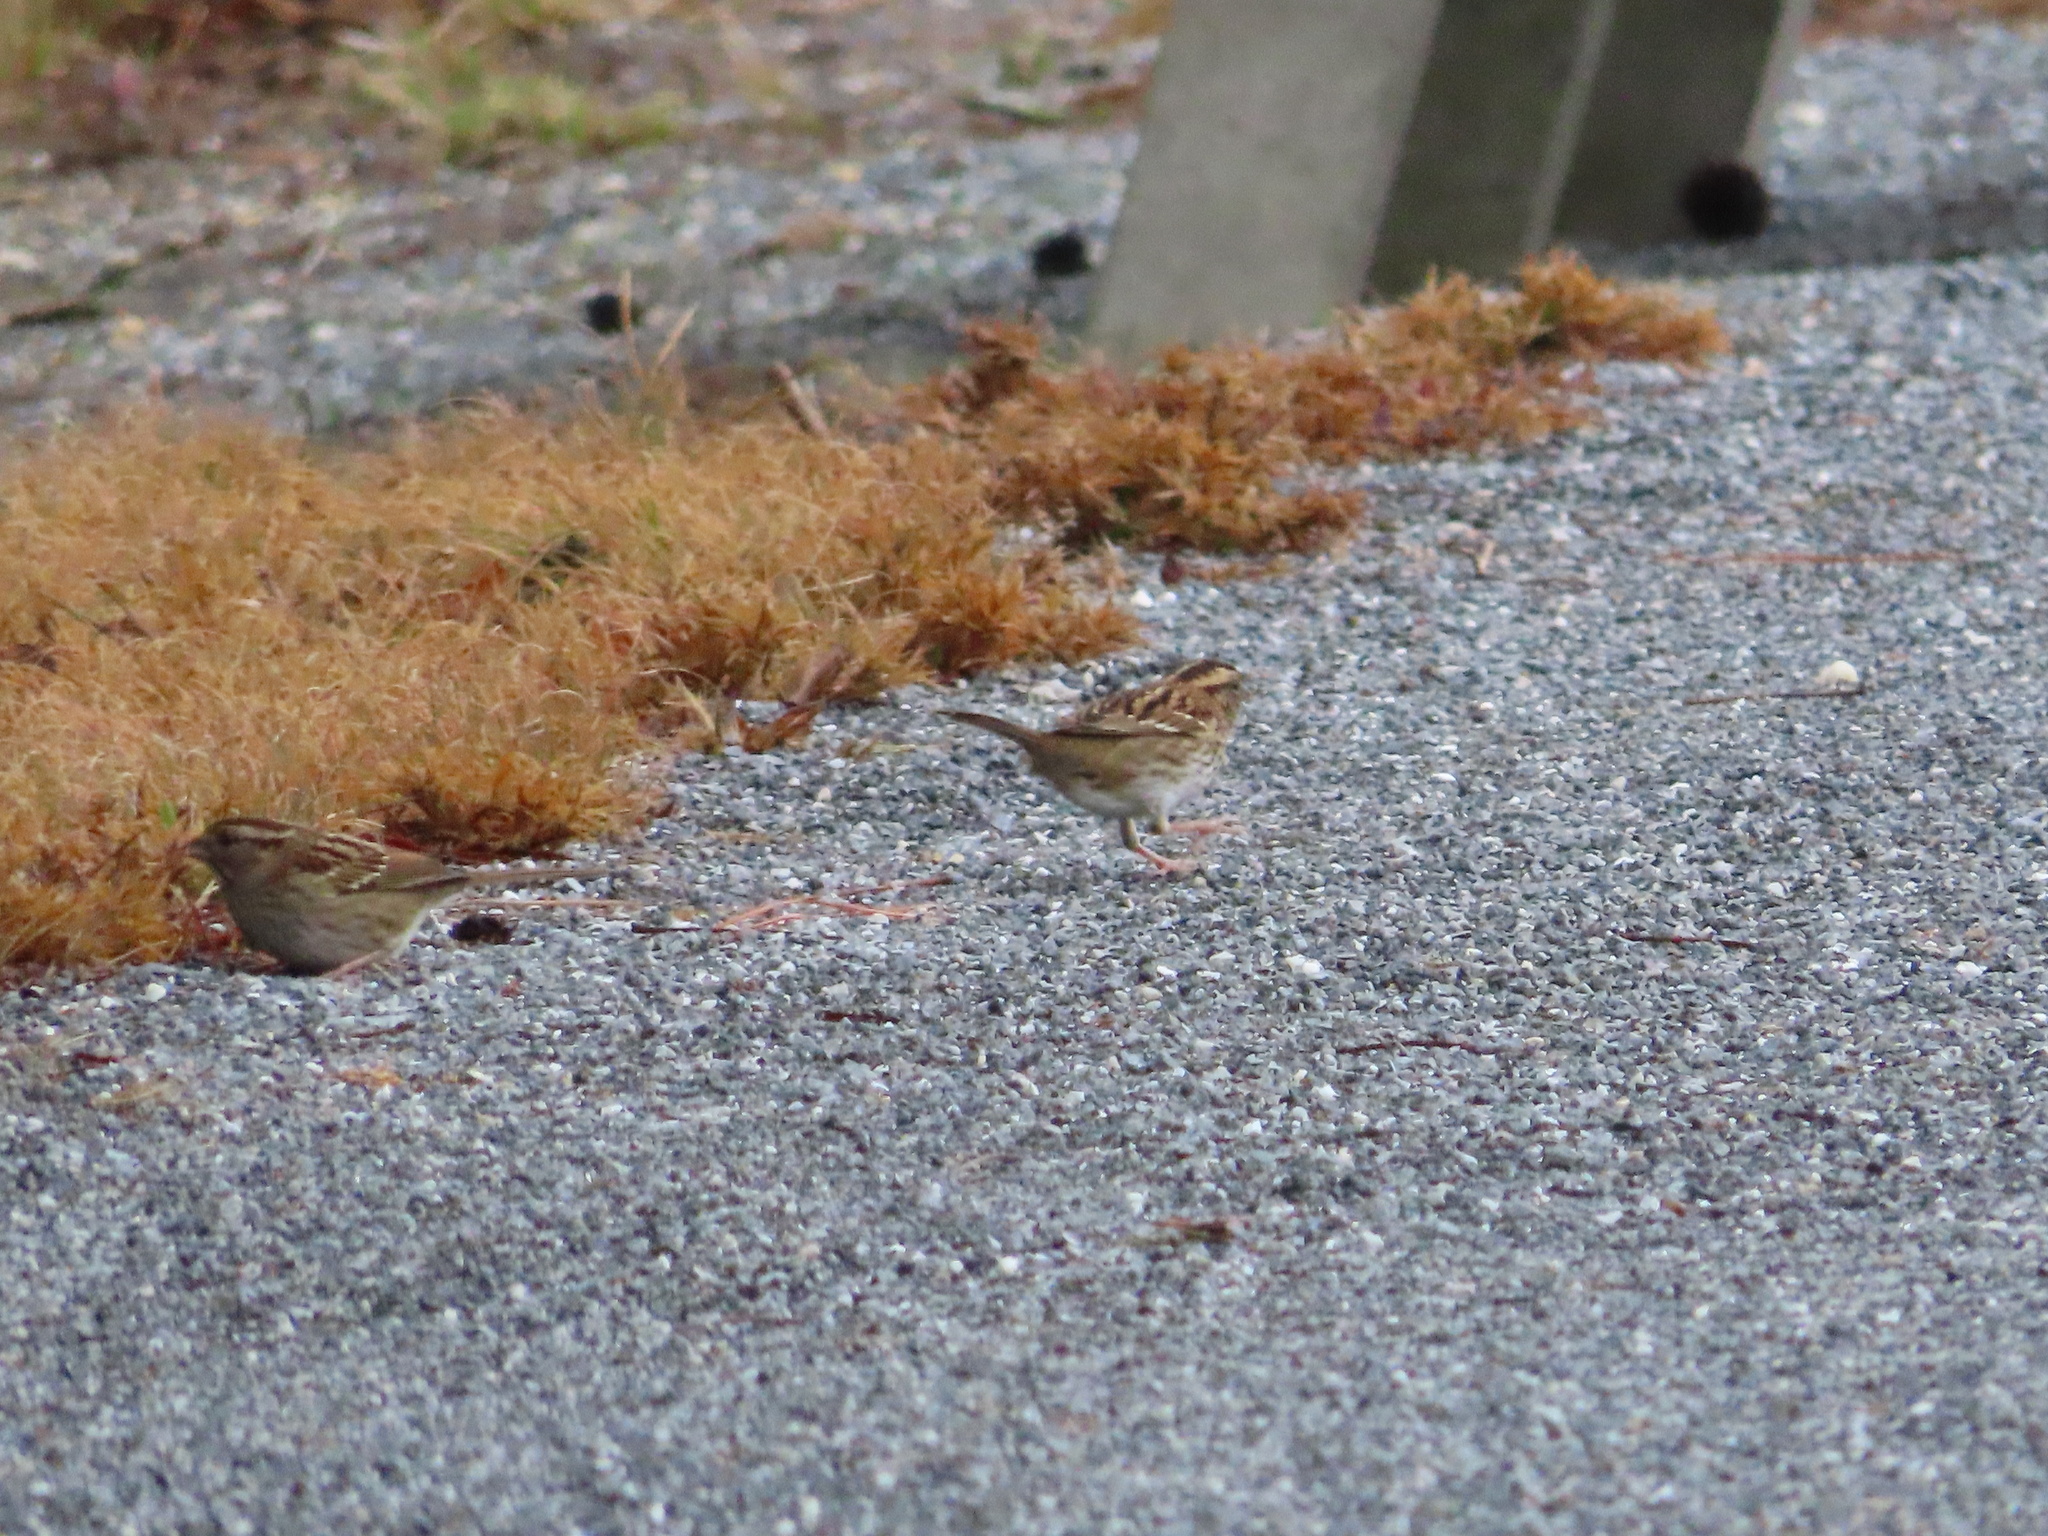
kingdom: Animalia
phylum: Chordata
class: Aves
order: Passeriformes
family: Passerellidae
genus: Zonotrichia
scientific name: Zonotrichia albicollis
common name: White-throated sparrow
